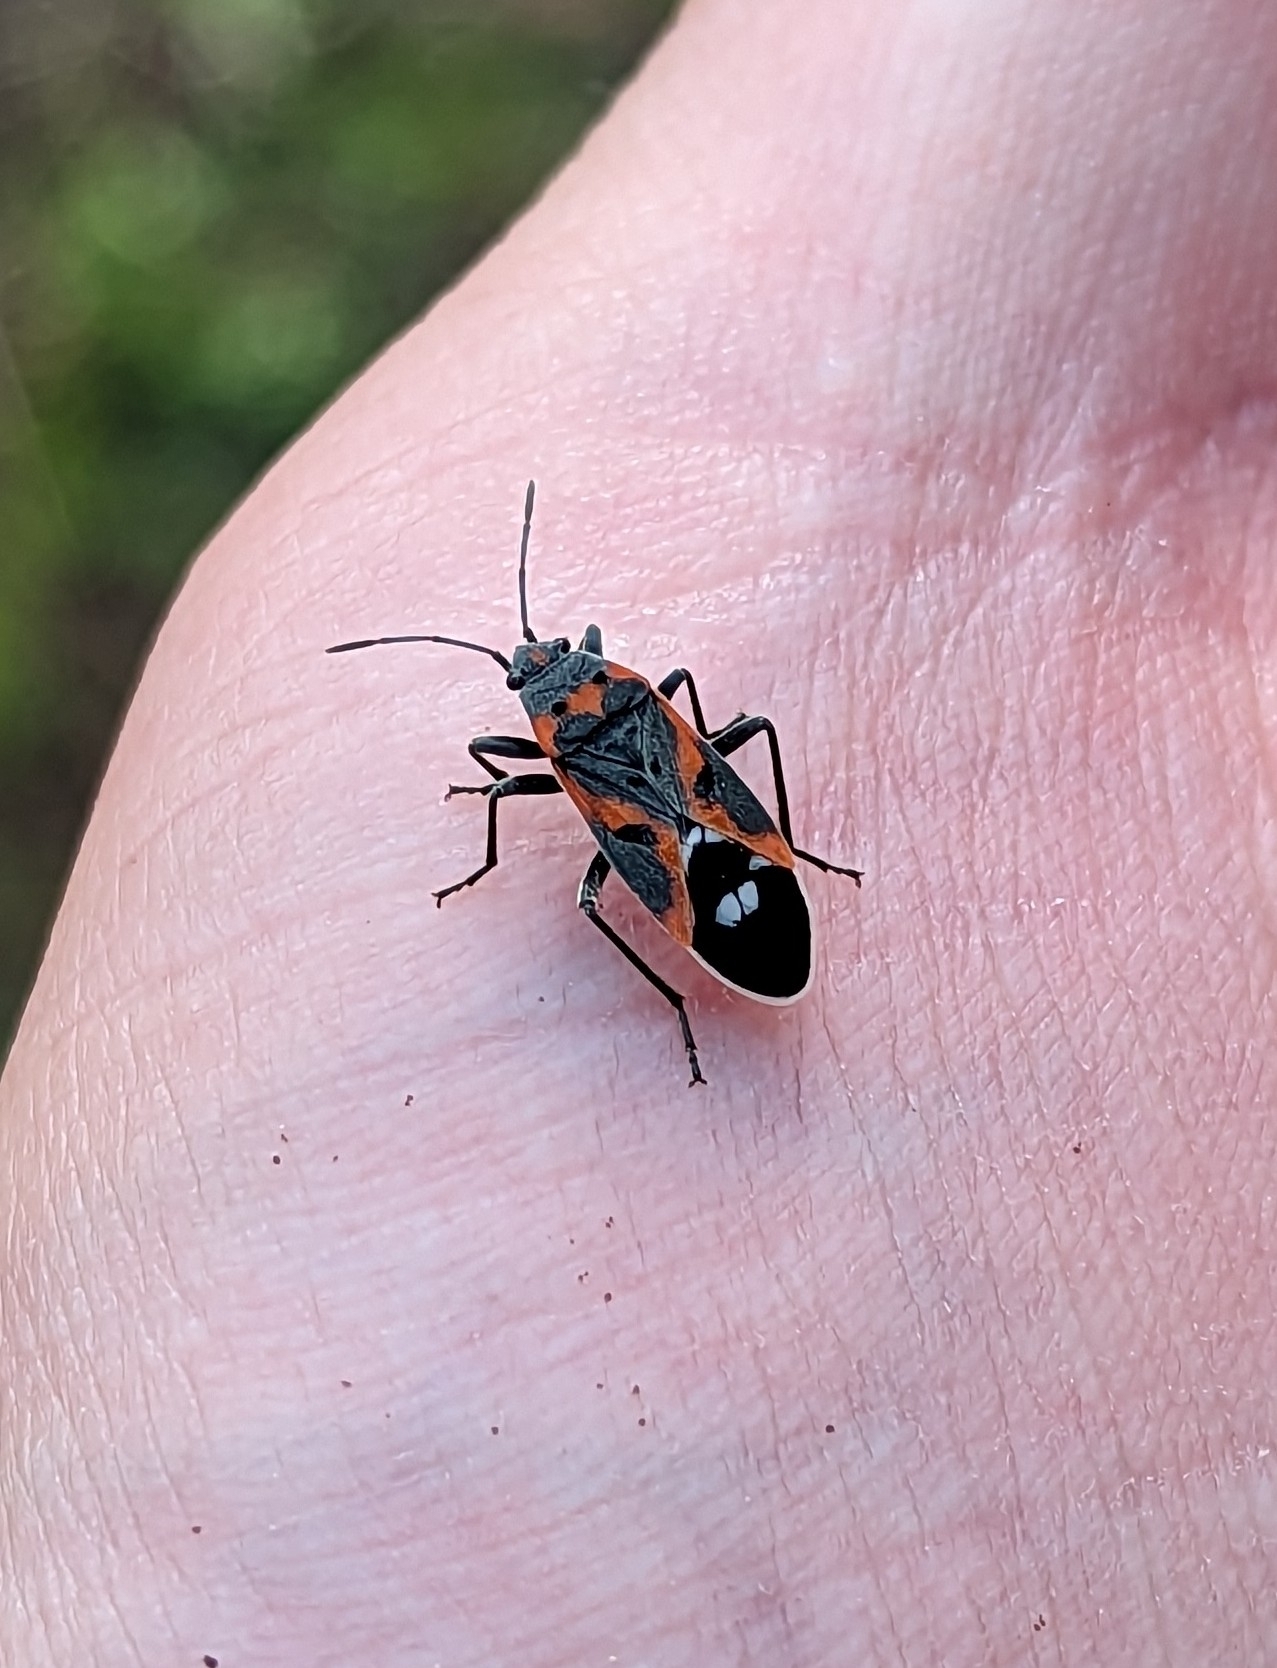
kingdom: Animalia
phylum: Arthropoda
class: Insecta
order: Hemiptera
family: Lygaeidae
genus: Lygaeus
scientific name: Lygaeus kalmii
